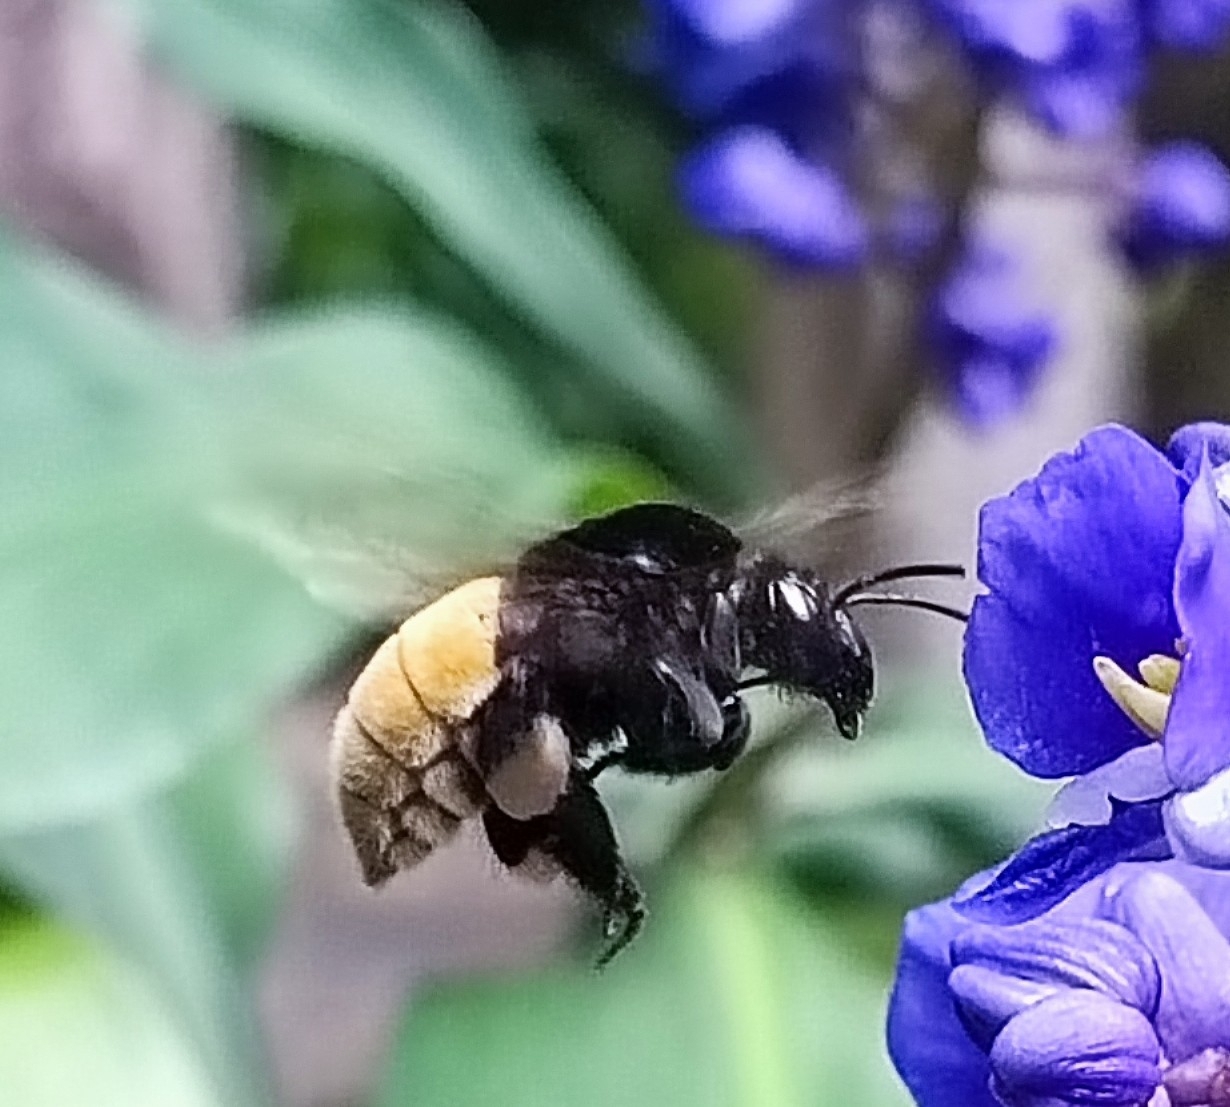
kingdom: Animalia
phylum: Arthropoda
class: Insecta
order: Hymenoptera
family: Apidae
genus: Eulaema
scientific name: Eulaema polychroma
